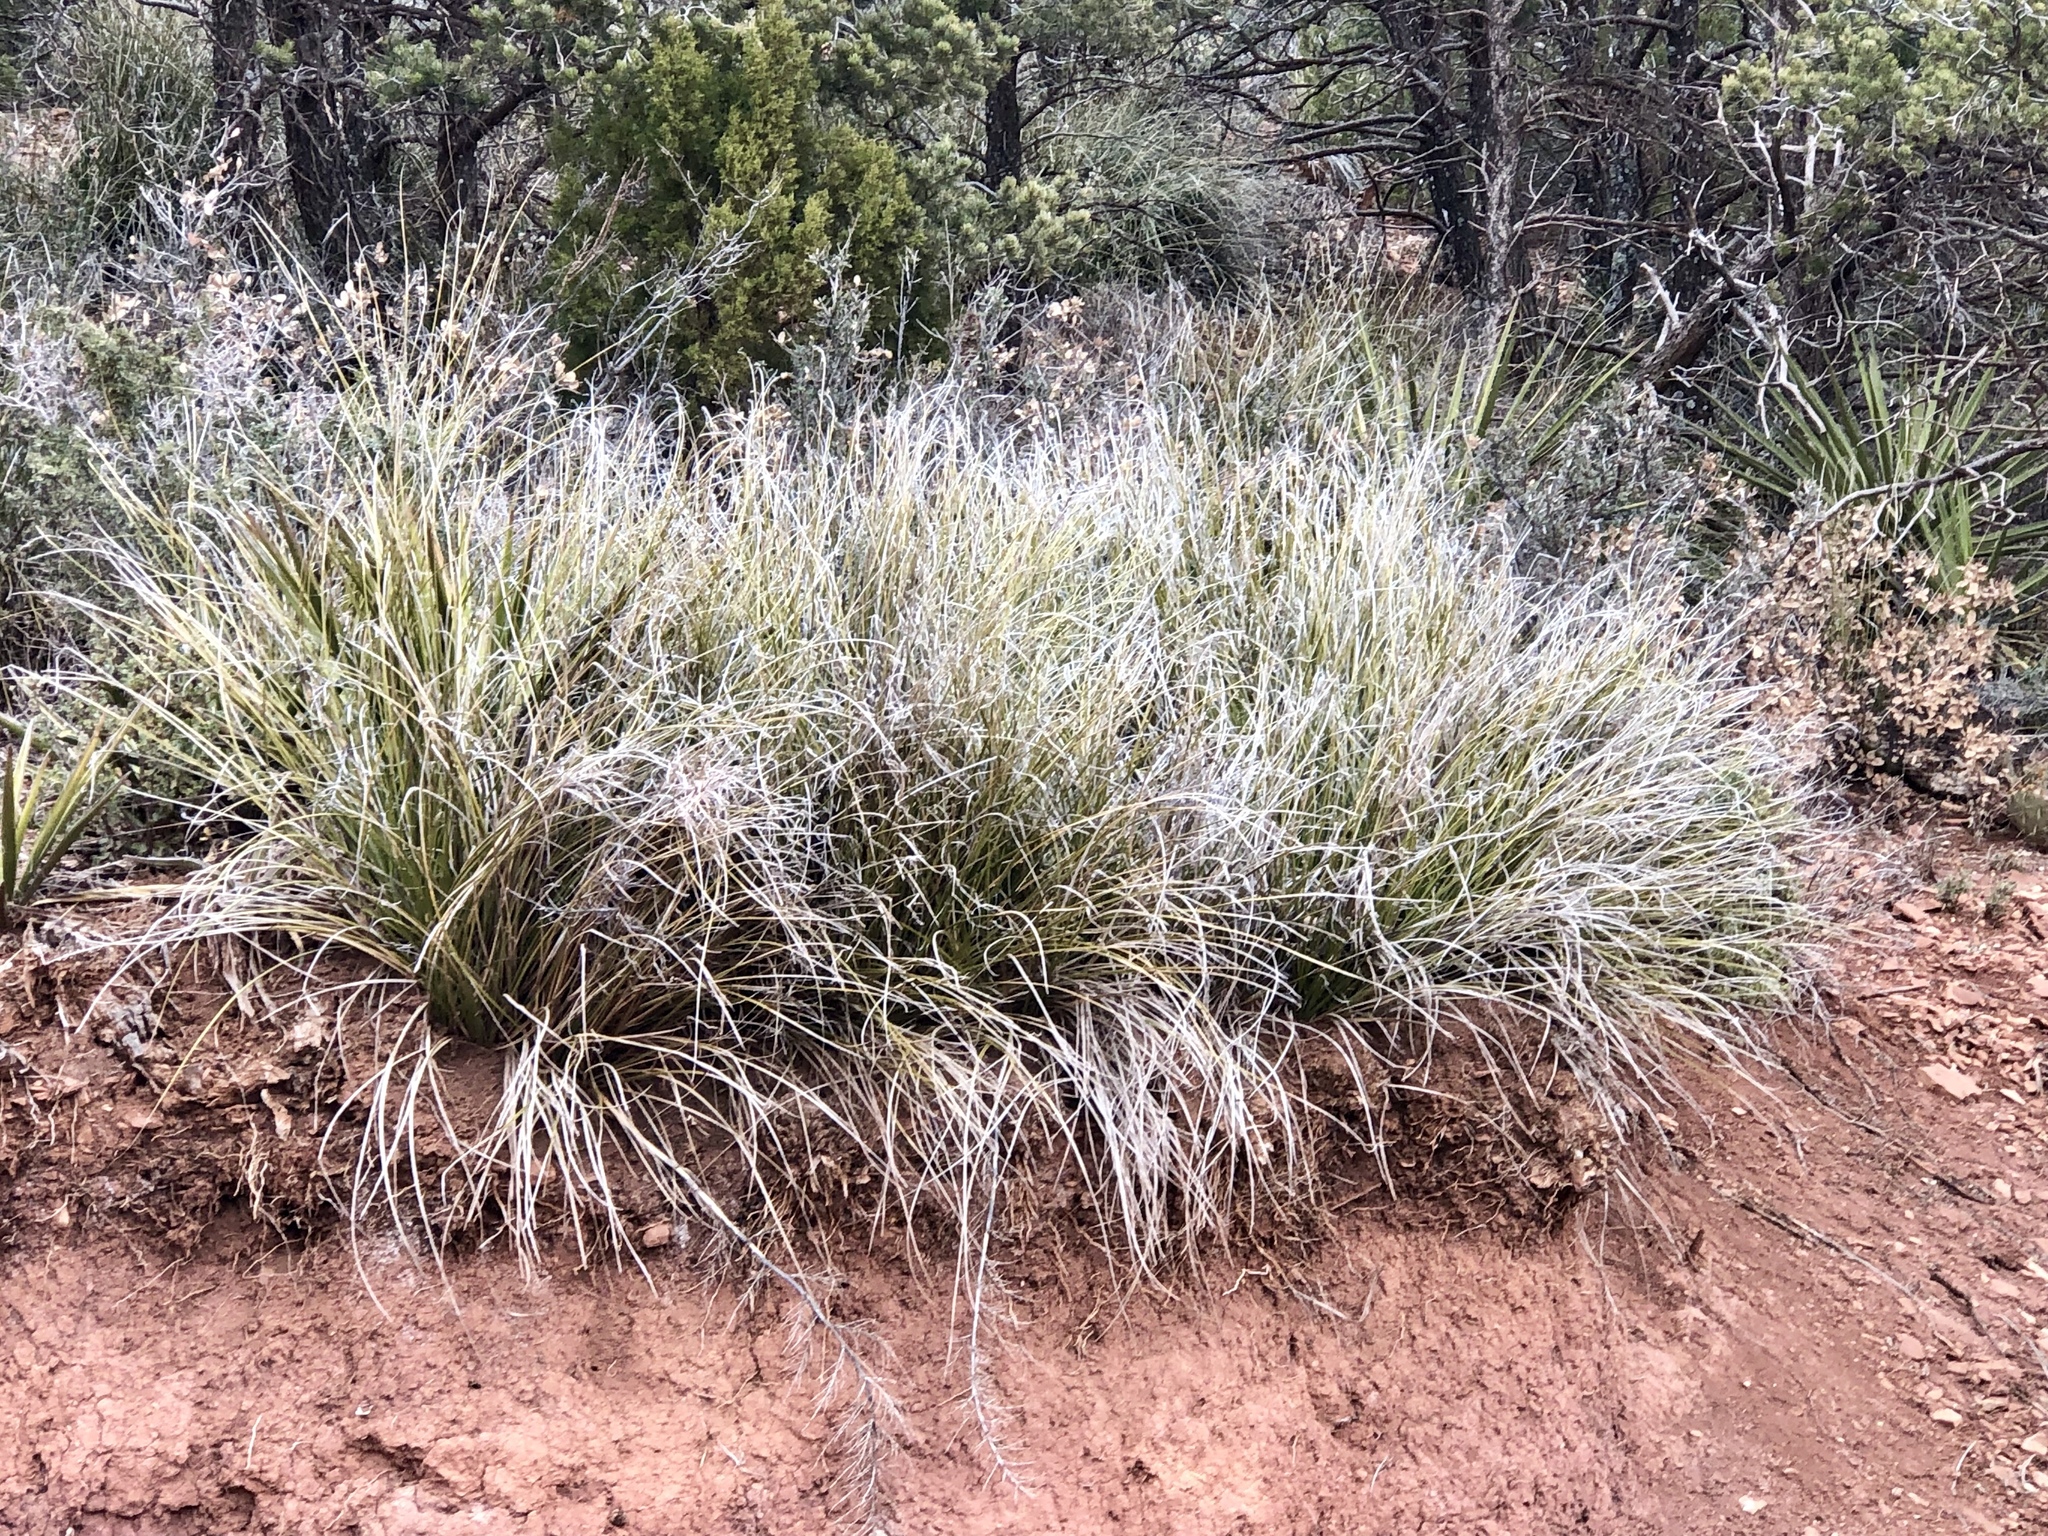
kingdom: Plantae
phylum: Tracheophyta
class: Liliopsida
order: Asparagales
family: Asparagaceae
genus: Nolina
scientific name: Nolina microcarpa
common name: Bear-grass
